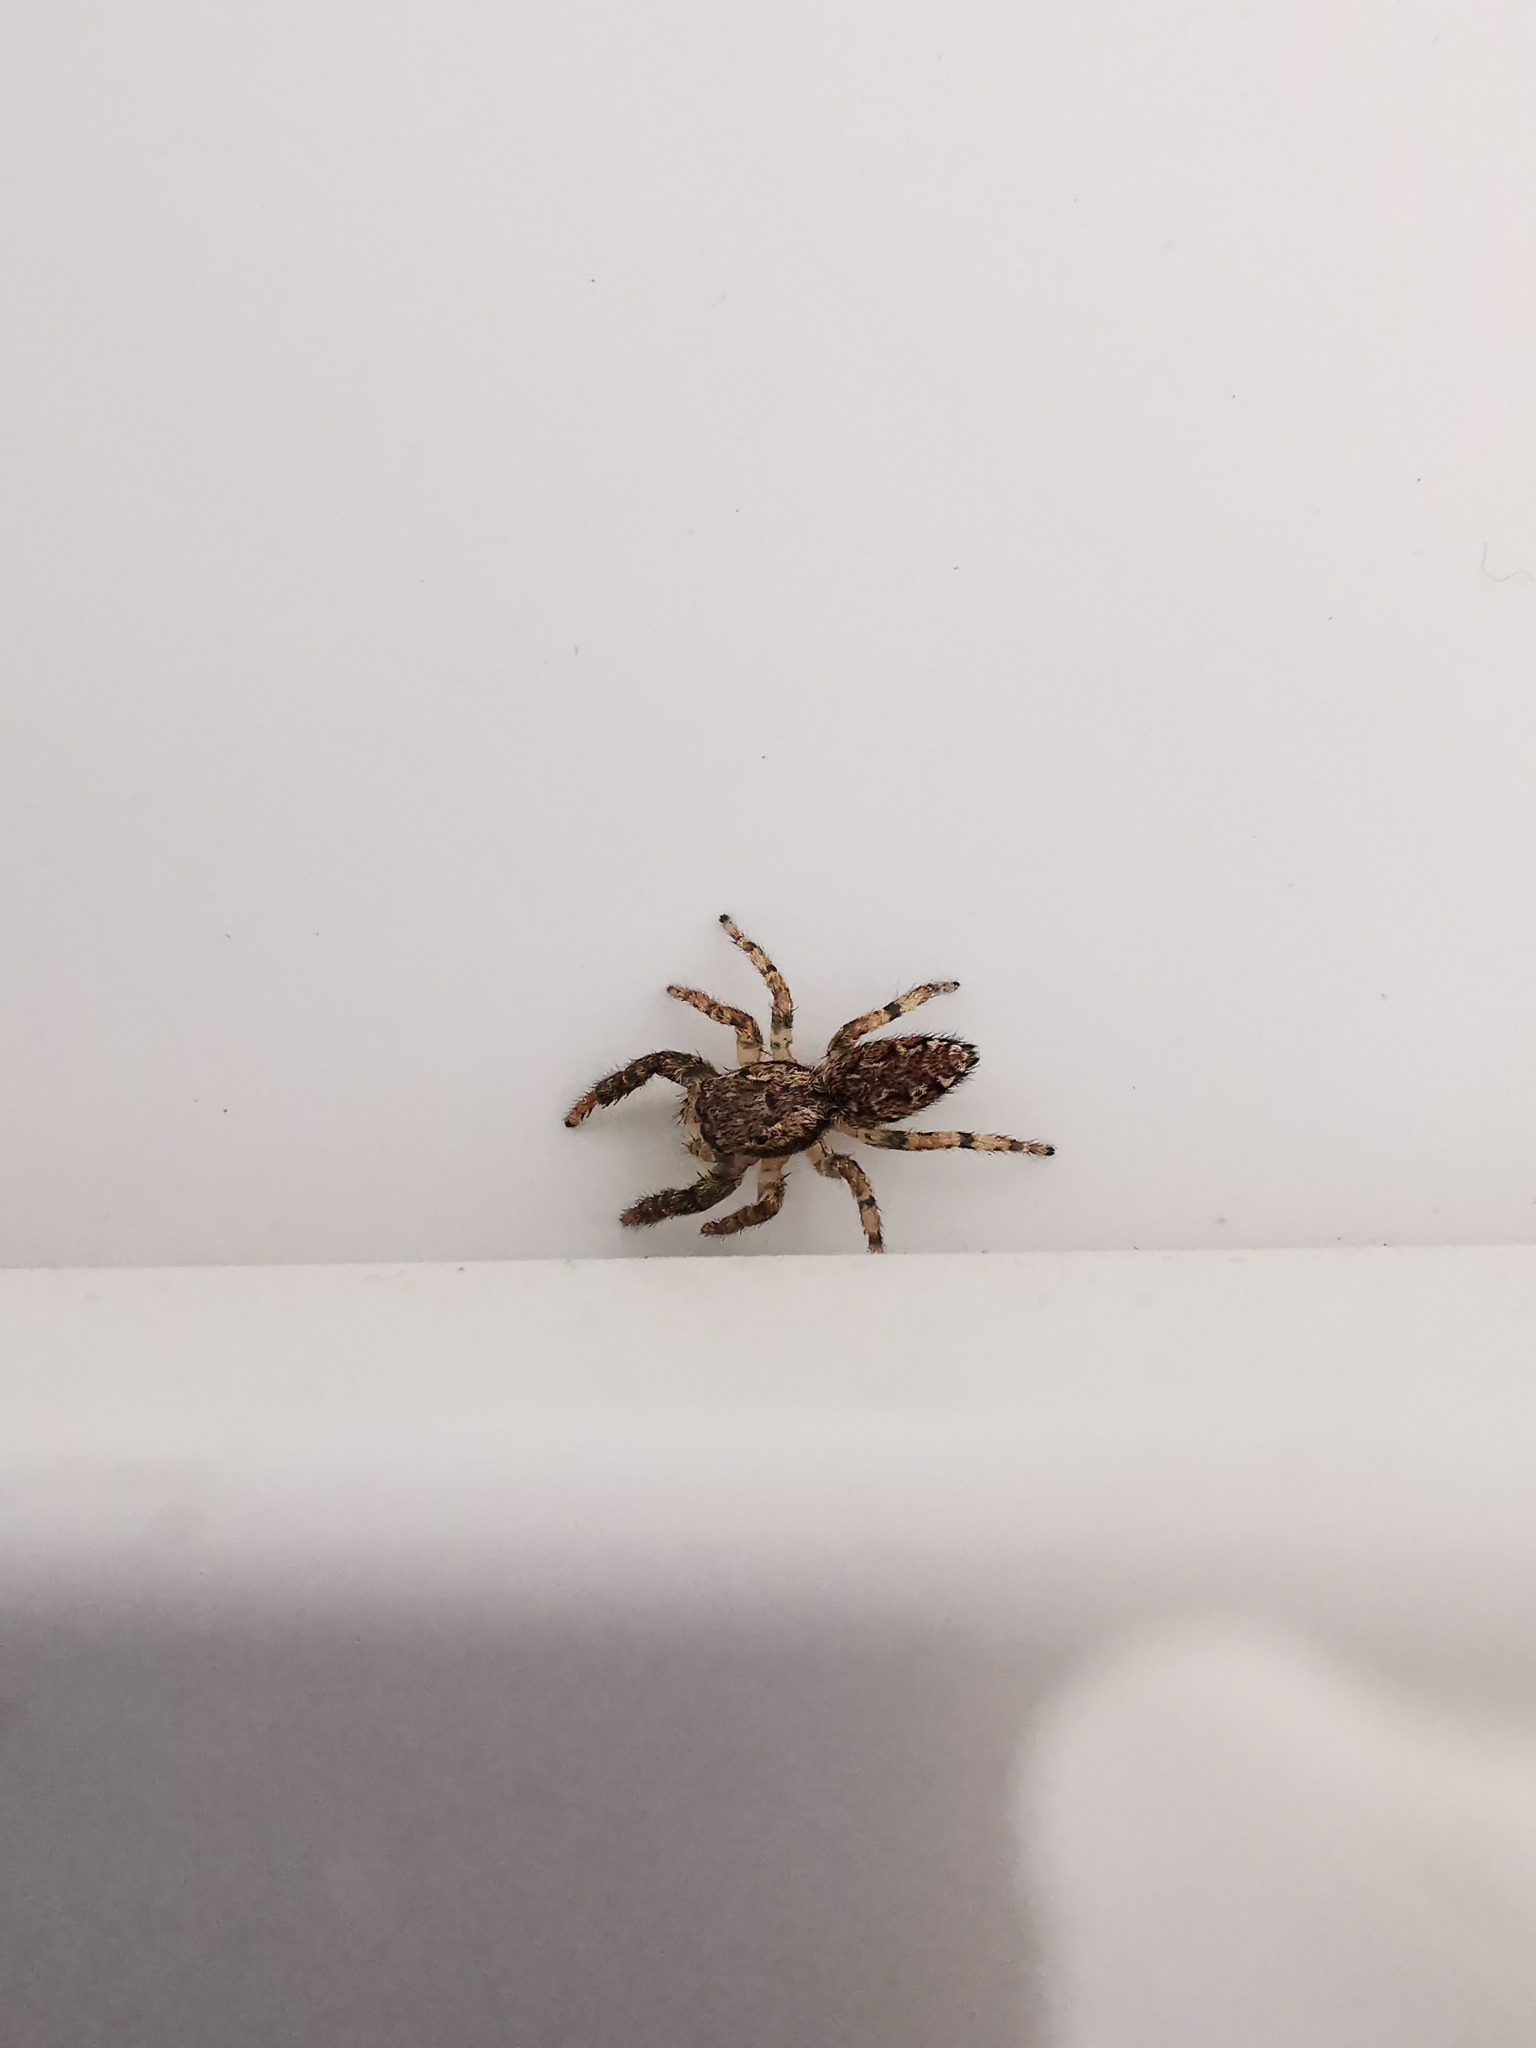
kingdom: Animalia
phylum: Arthropoda
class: Arachnida
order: Araneae
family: Salticidae
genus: Marpissa
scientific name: Marpissa muscosa
